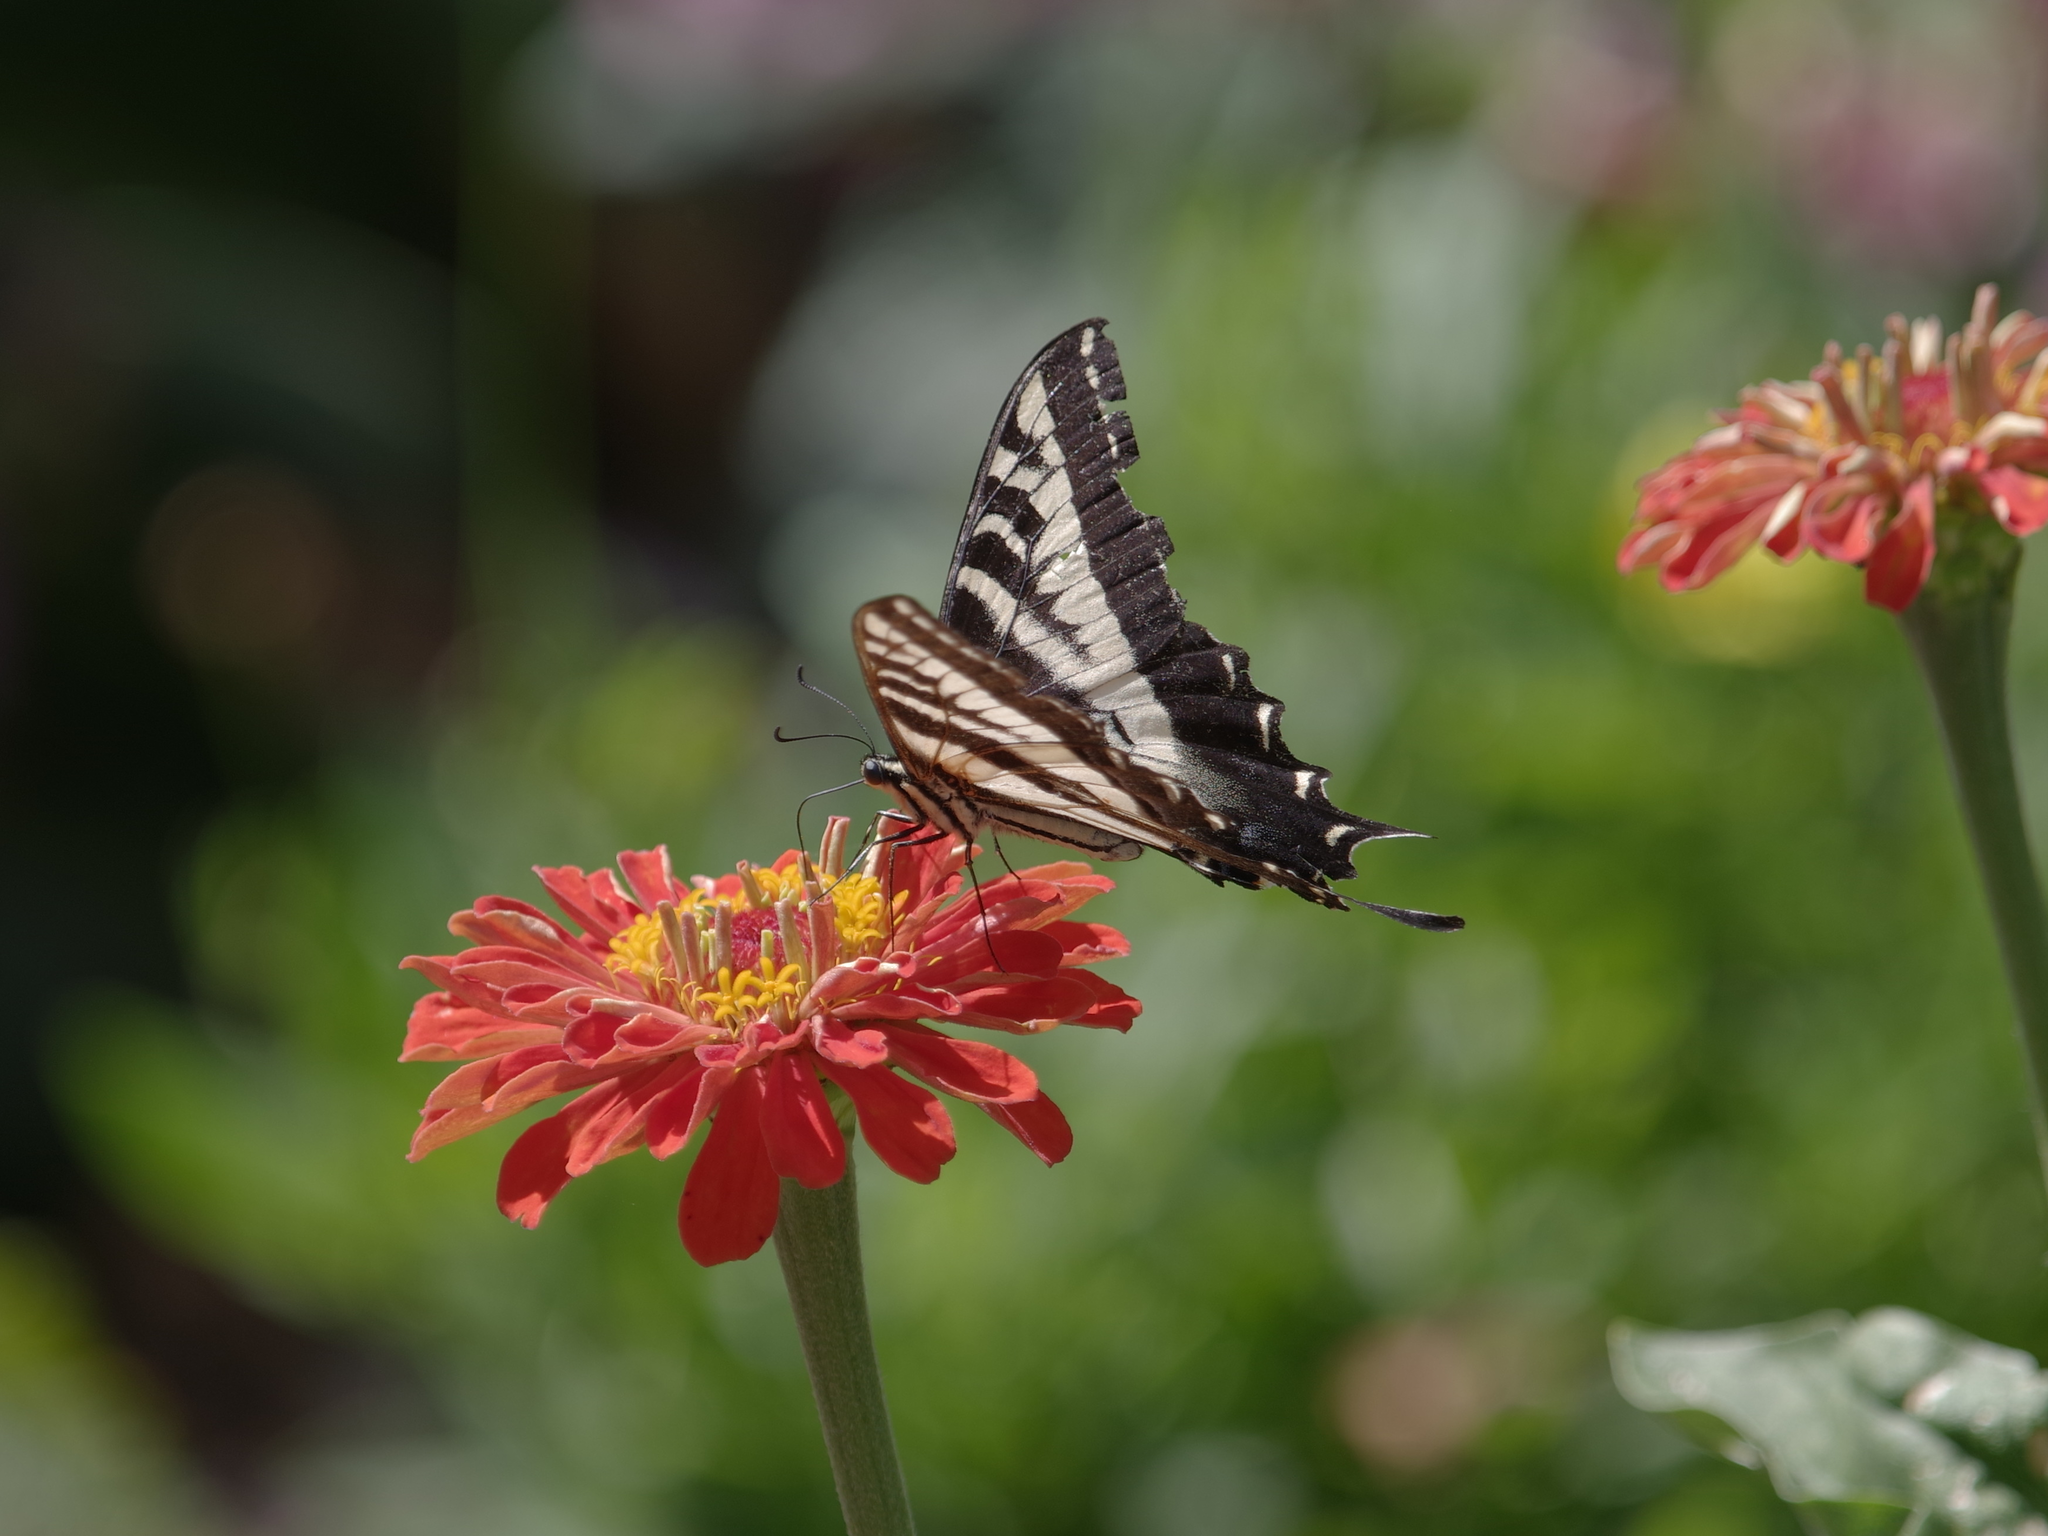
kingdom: Animalia
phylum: Arthropoda
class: Insecta
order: Lepidoptera
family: Papilionidae
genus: Papilio
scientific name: Papilio eurymedon
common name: Pale tiger swallowtail
